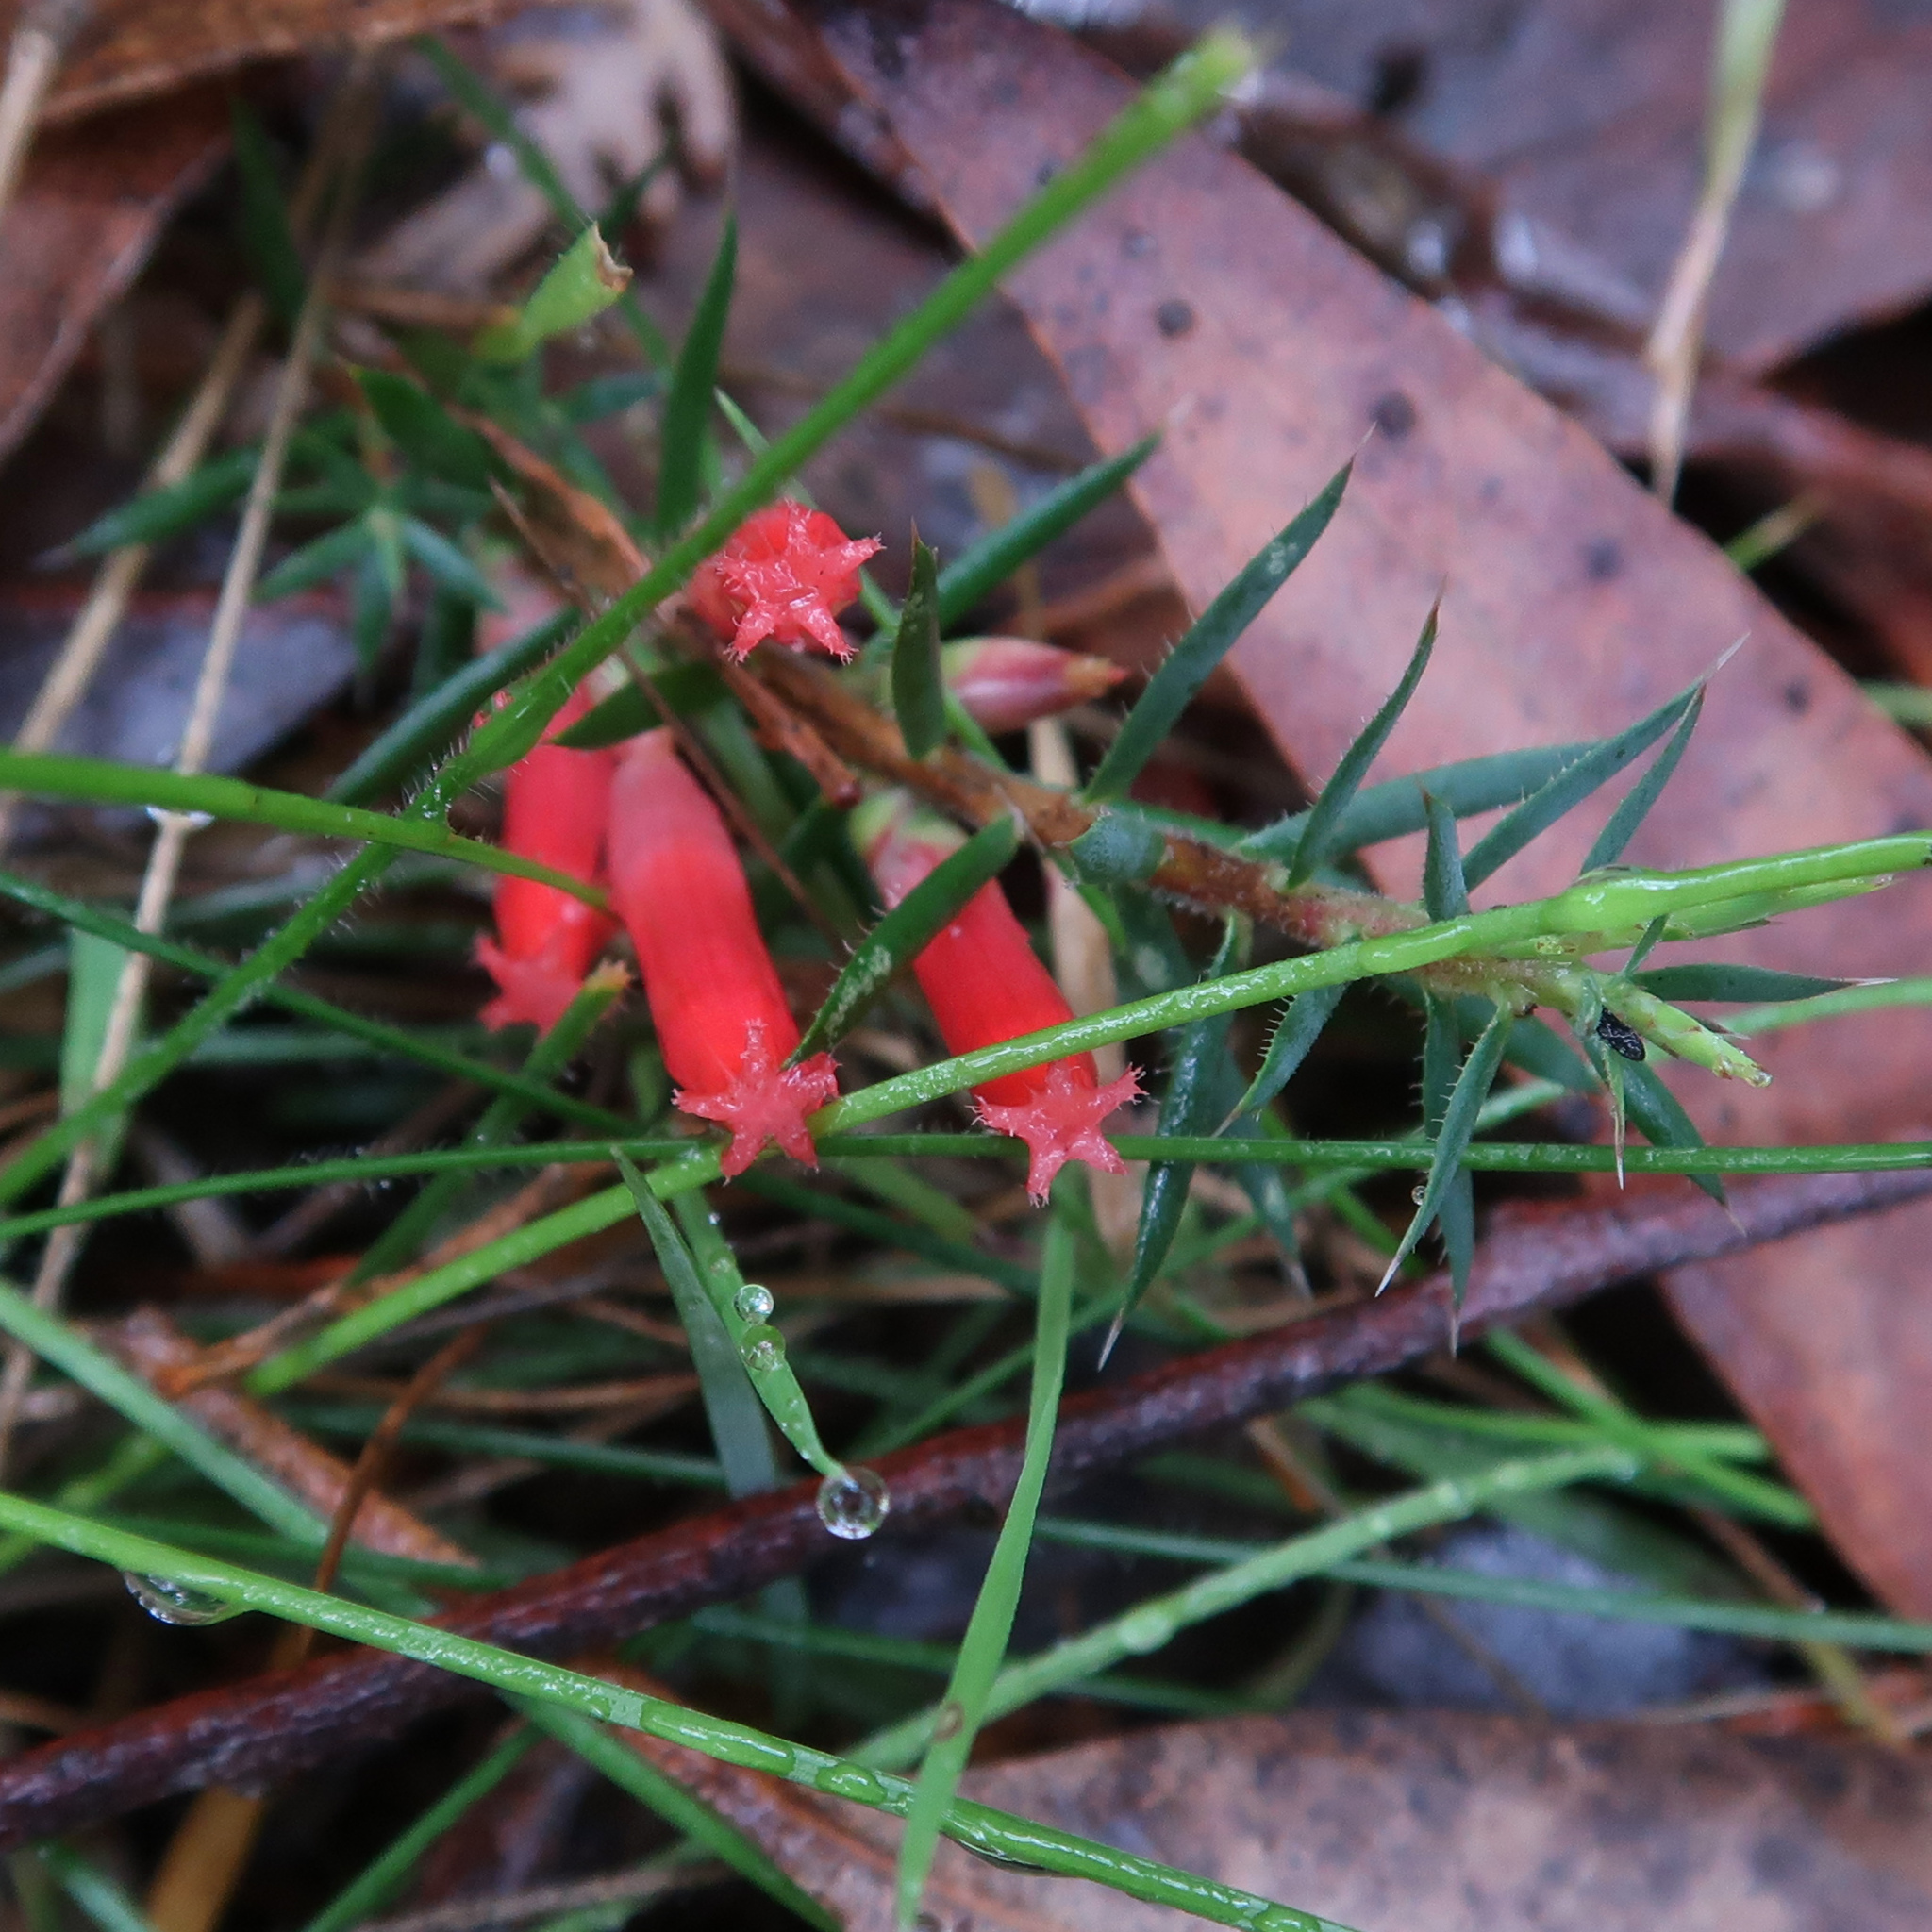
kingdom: Plantae
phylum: Tracheophyta
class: Magnoliopsida
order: Ericales
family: Ericaceae
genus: Styphelia
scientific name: Styphelia humifusa
